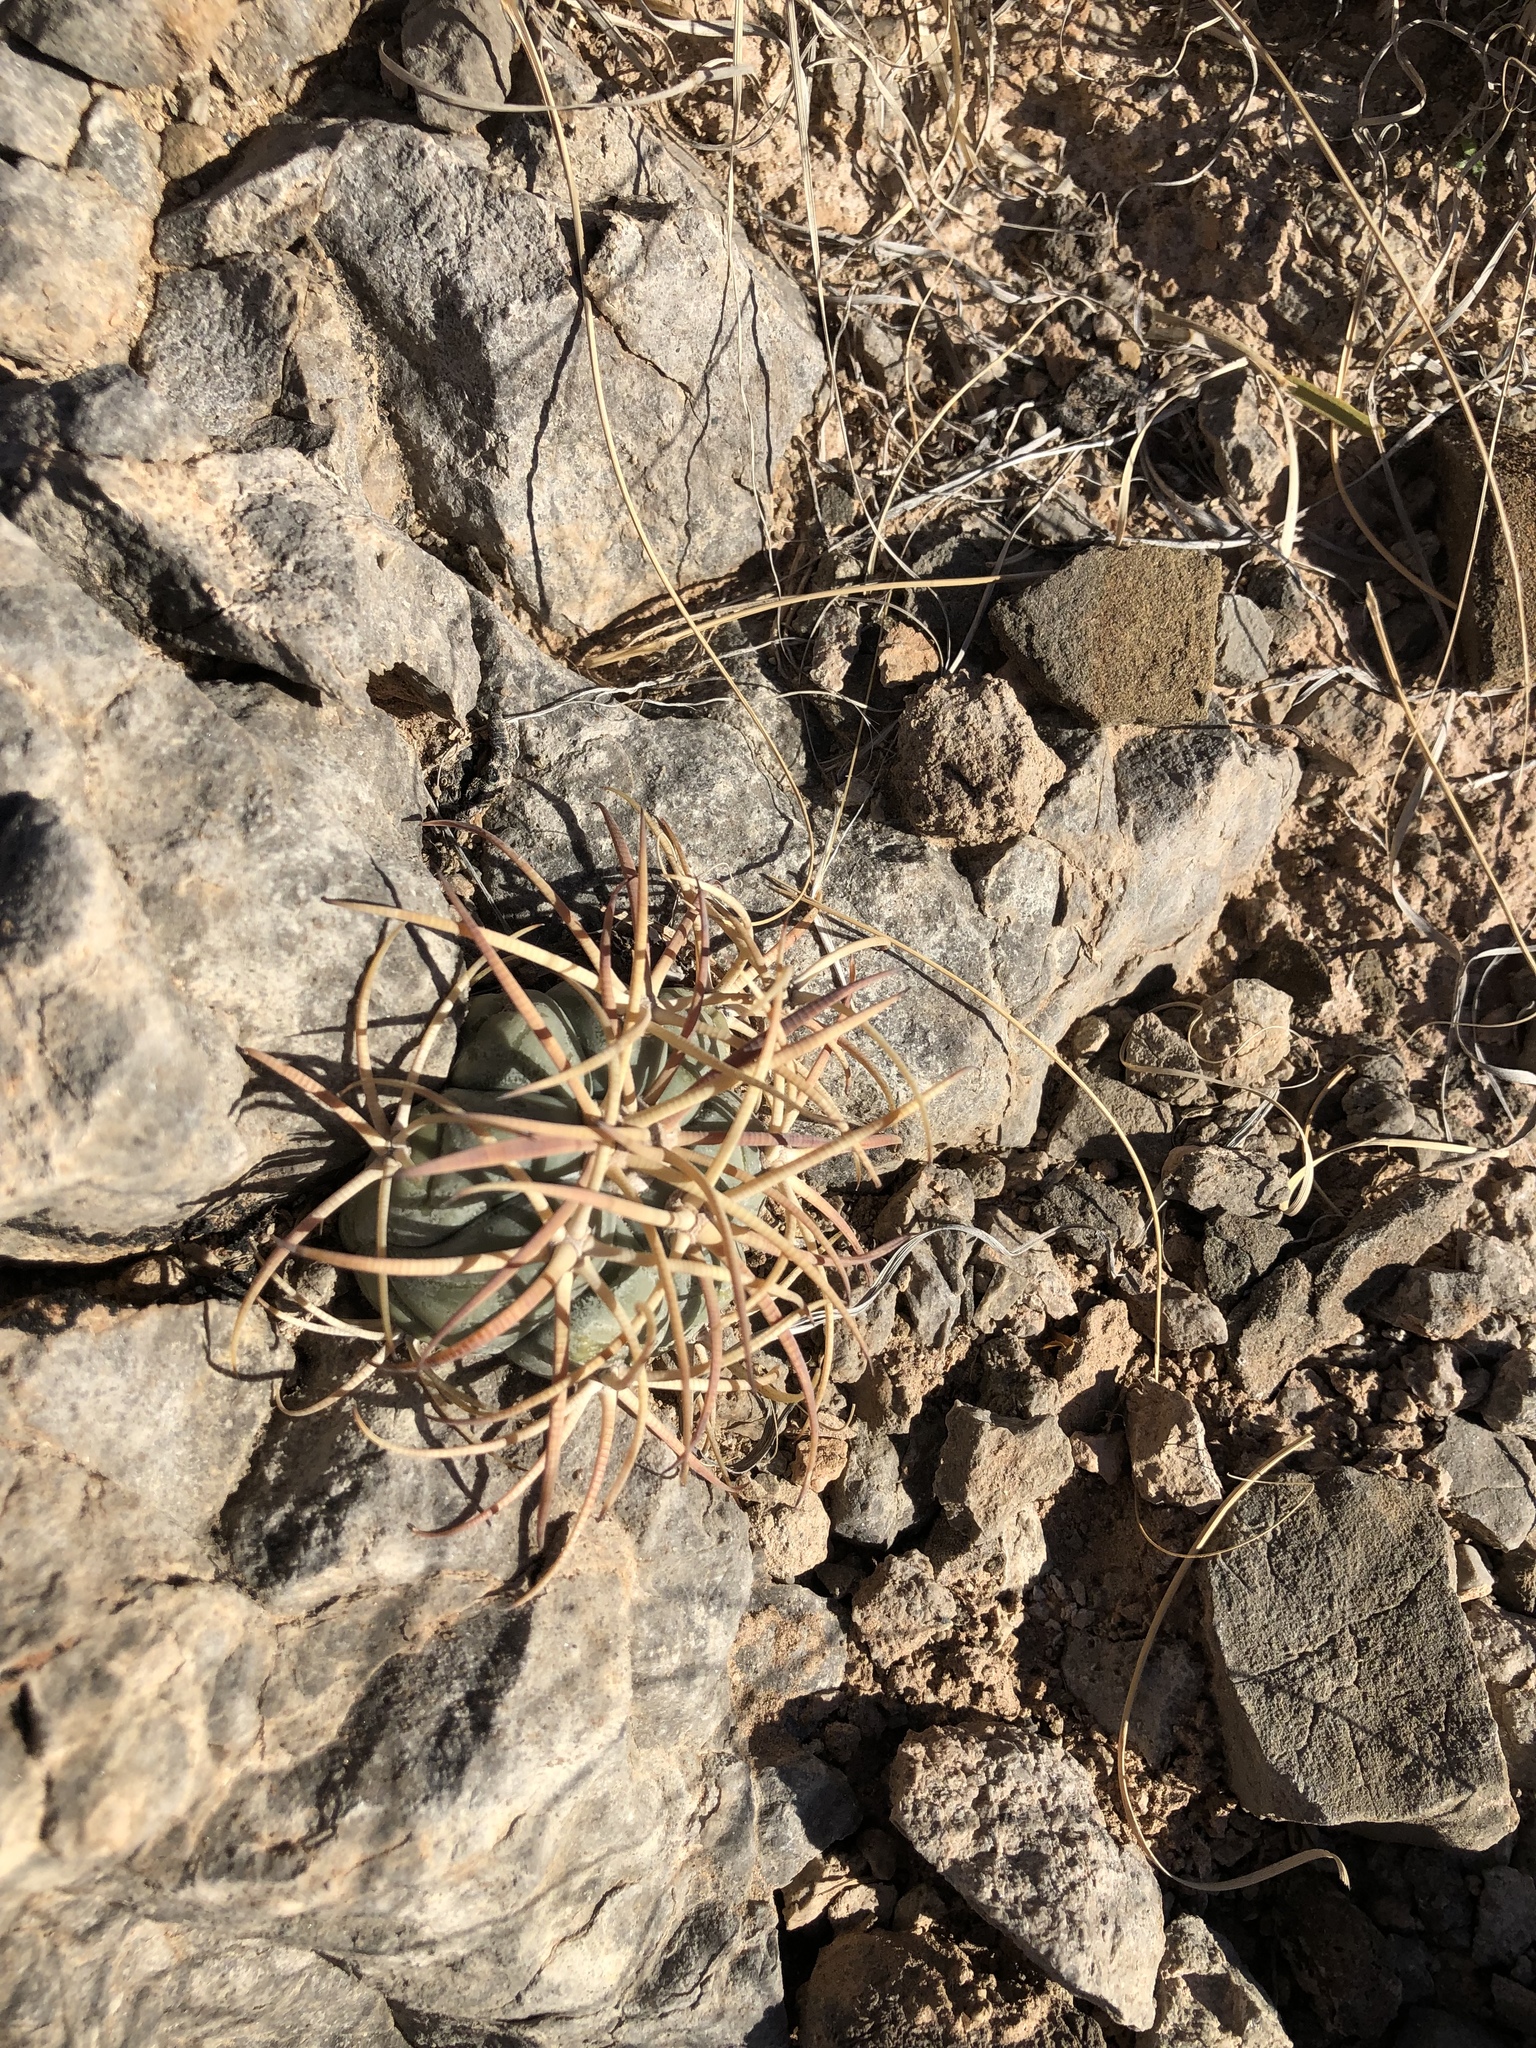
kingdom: Plantae
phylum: Tracheophyta
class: Magnoliopsida
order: Caryophyllales
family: Cactaceae
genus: Echinocactus
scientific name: Echinocactus horizonthalonius
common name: Devilshead
